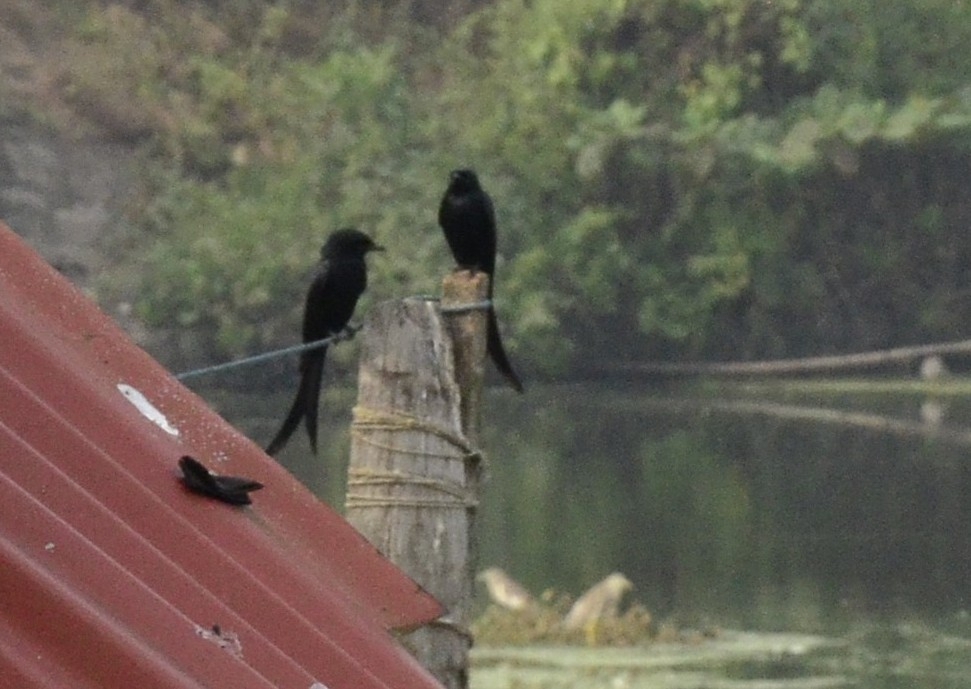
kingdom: Animalia
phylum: Chordata
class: Aves
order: Passeriformes
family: Dicruridae
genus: Dicrurus
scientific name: Dicrurus macrocercus
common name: Black drongo
